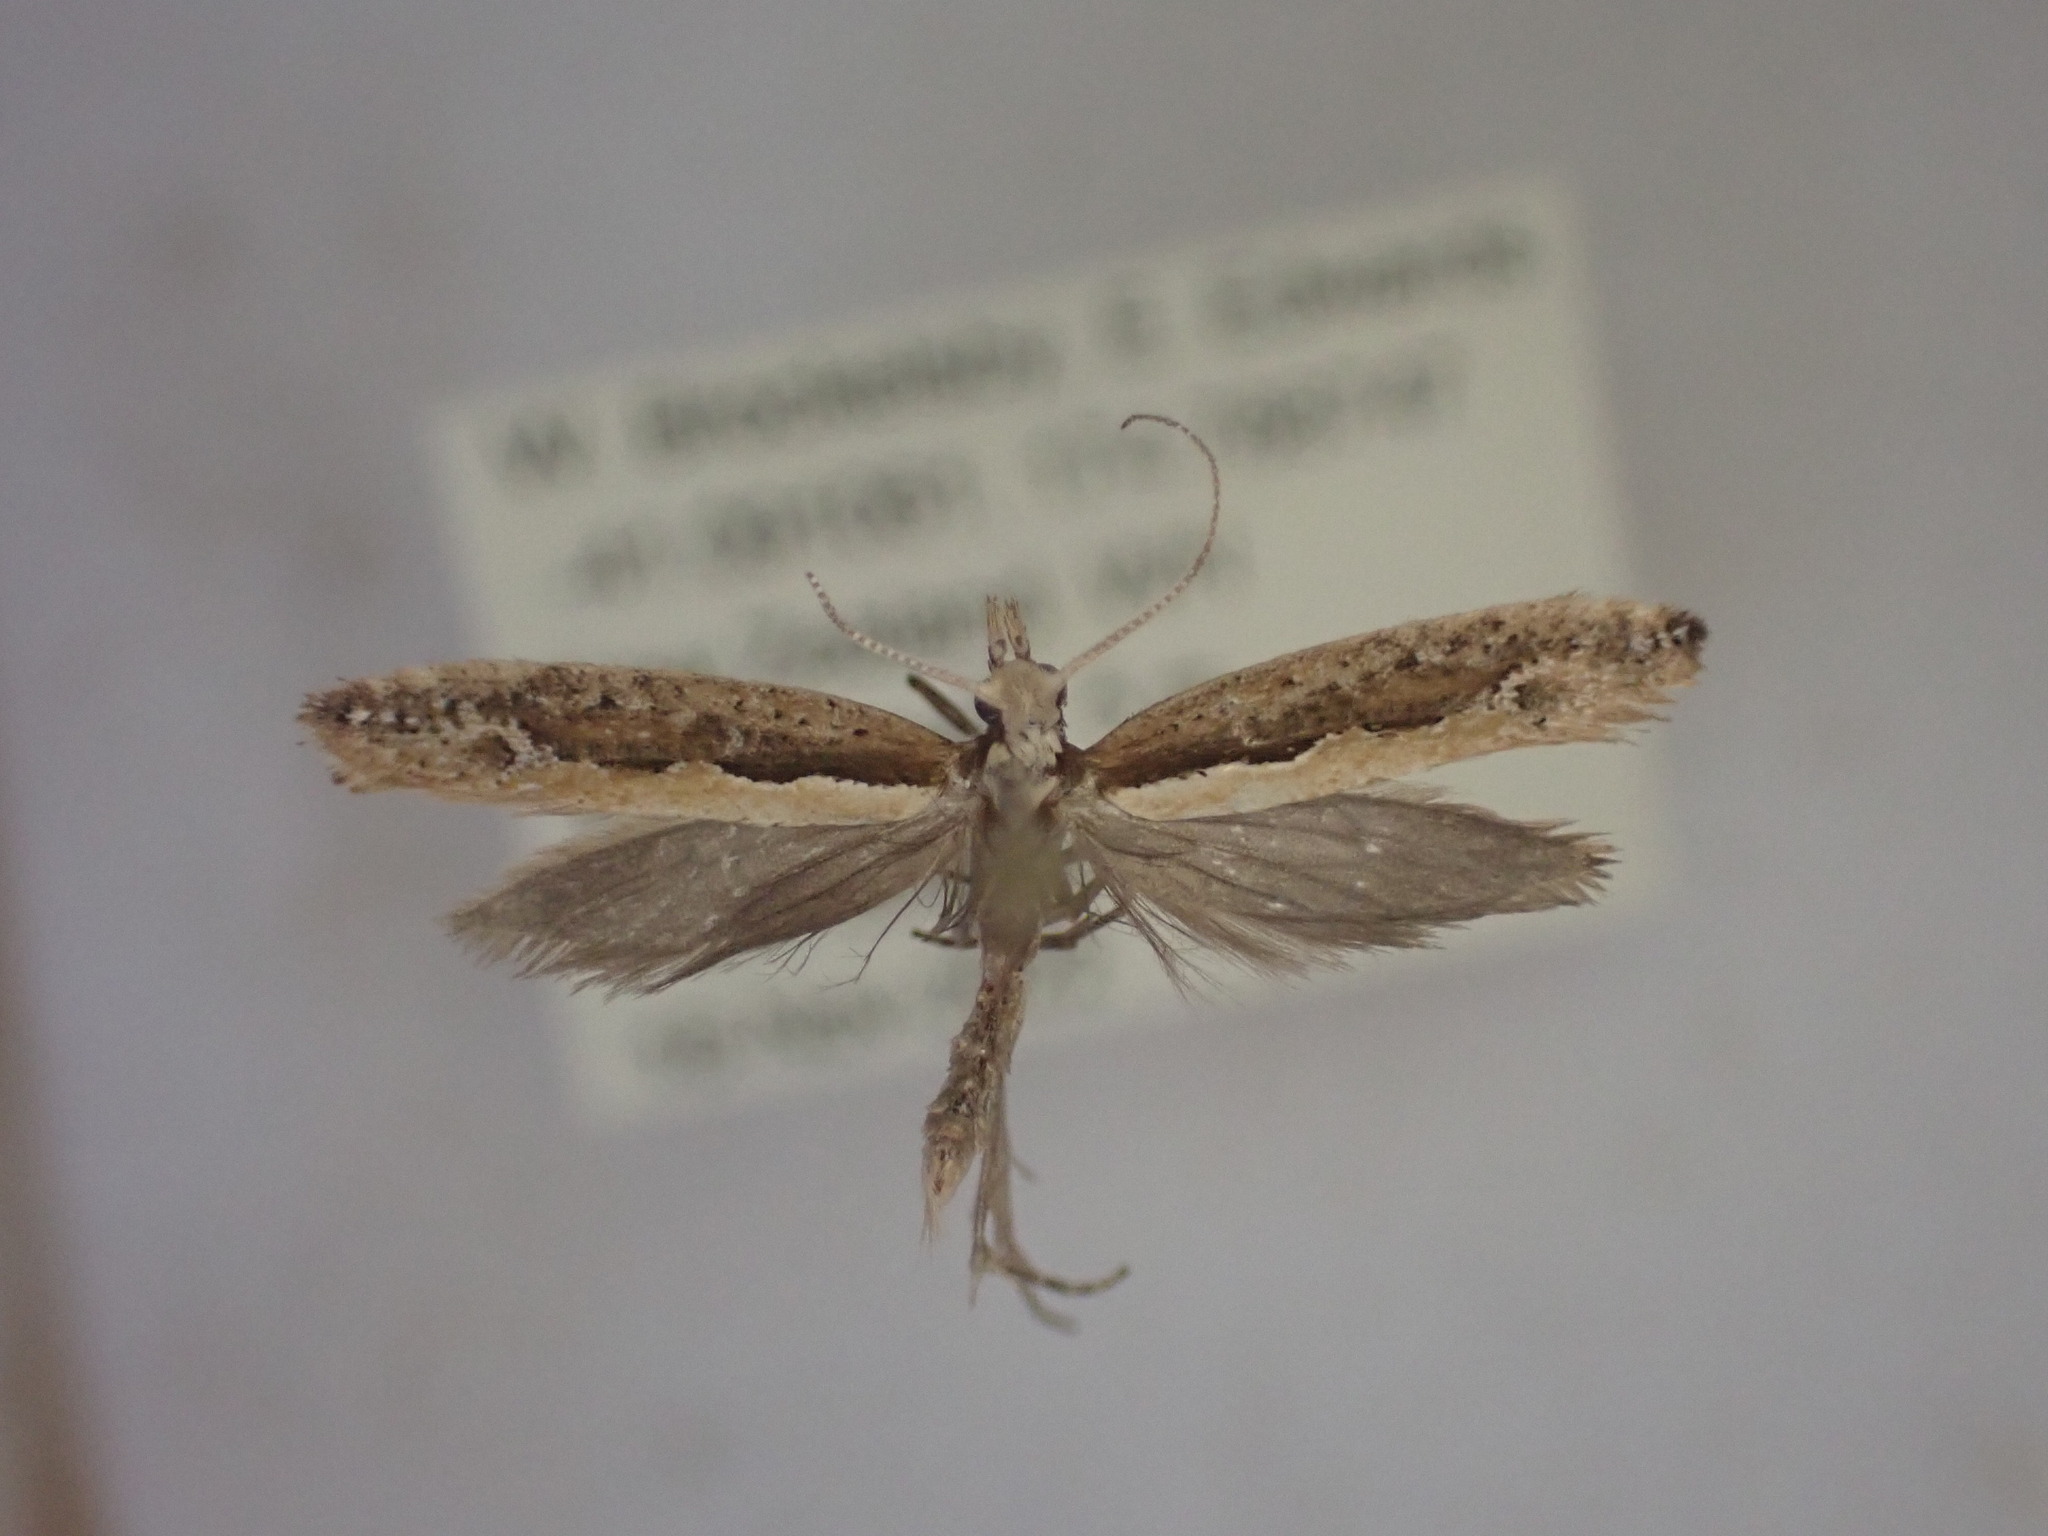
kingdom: Animalia
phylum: Arthropoda
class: Insecta
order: Lepidoptera
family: Plutellidae
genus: Plutella
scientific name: Plutella xylostella
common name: Diamond-back moth
